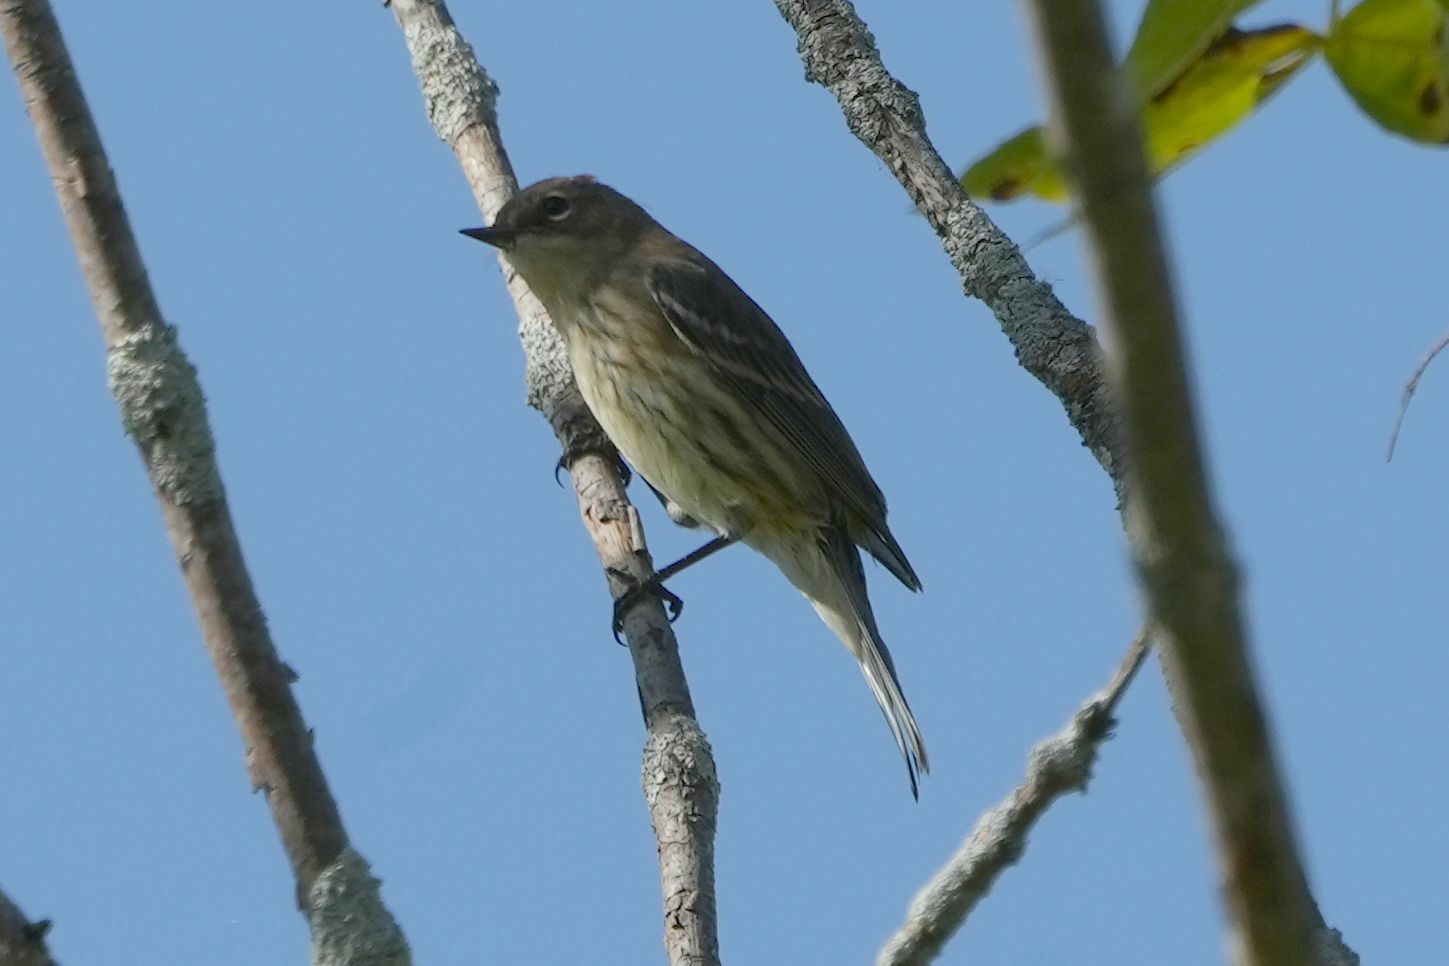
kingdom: Animalia
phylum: Chordata
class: Aves
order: Passeriformes
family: Parulidae
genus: Setophaga
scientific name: Setophaga coronata
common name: Myrtle warbler
